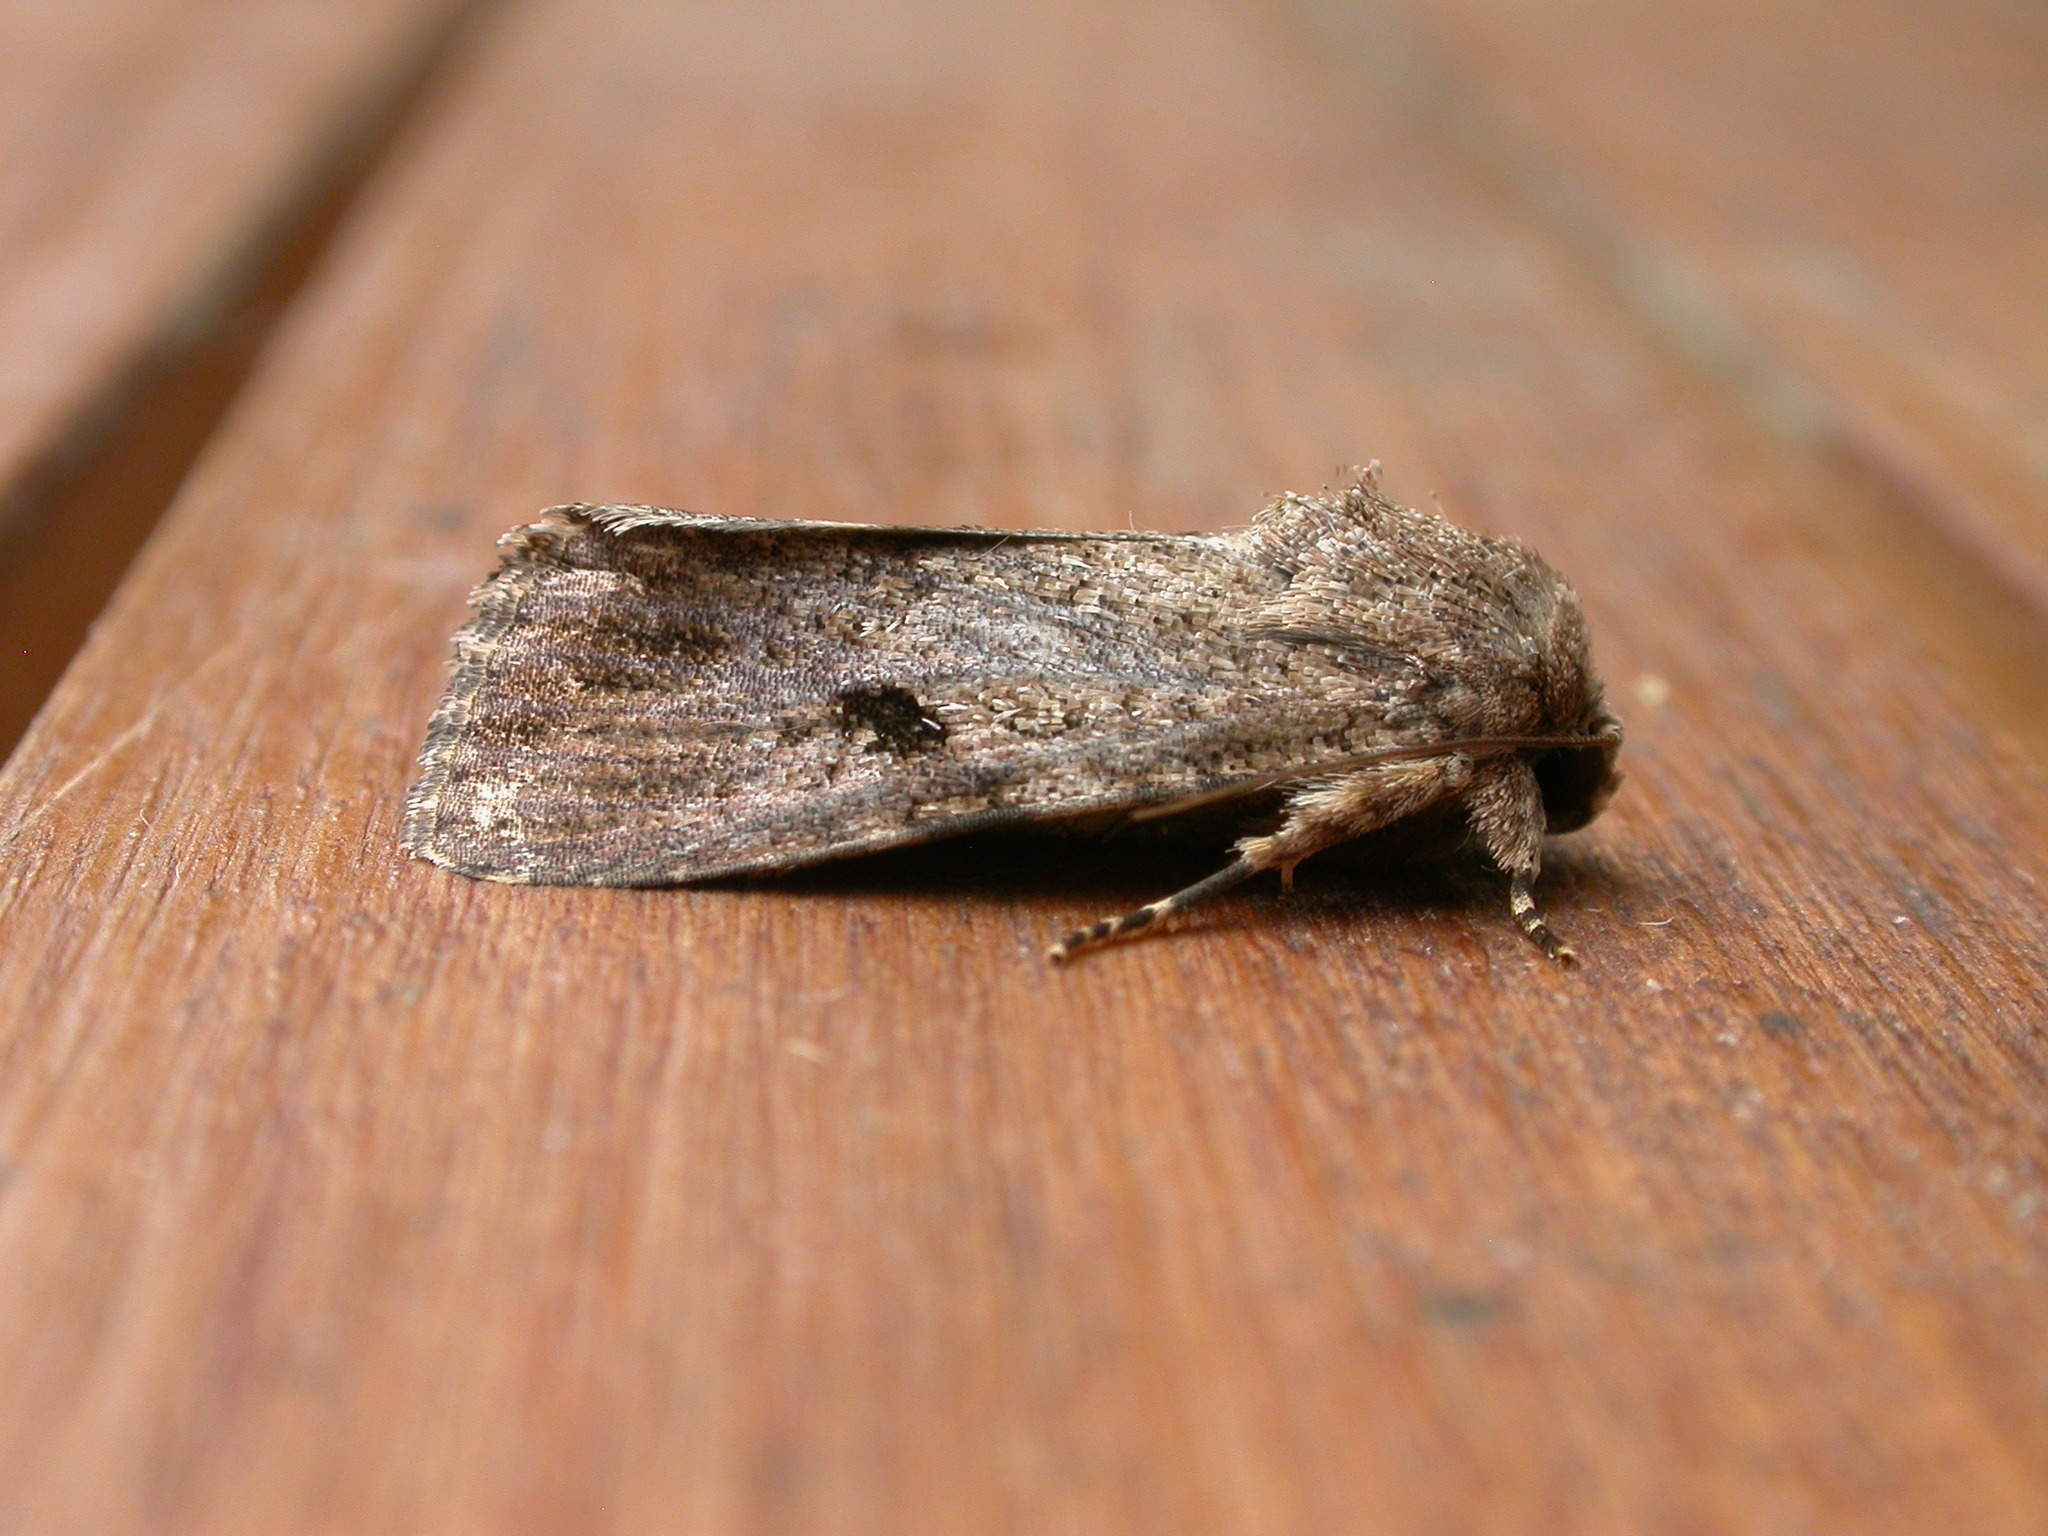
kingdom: Animalia
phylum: Arthropoda
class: Insecta
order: Lepidoptera
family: Noctuidae
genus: Spodoptera
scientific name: Spodoptera mauritia
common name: Lawn armyworm
